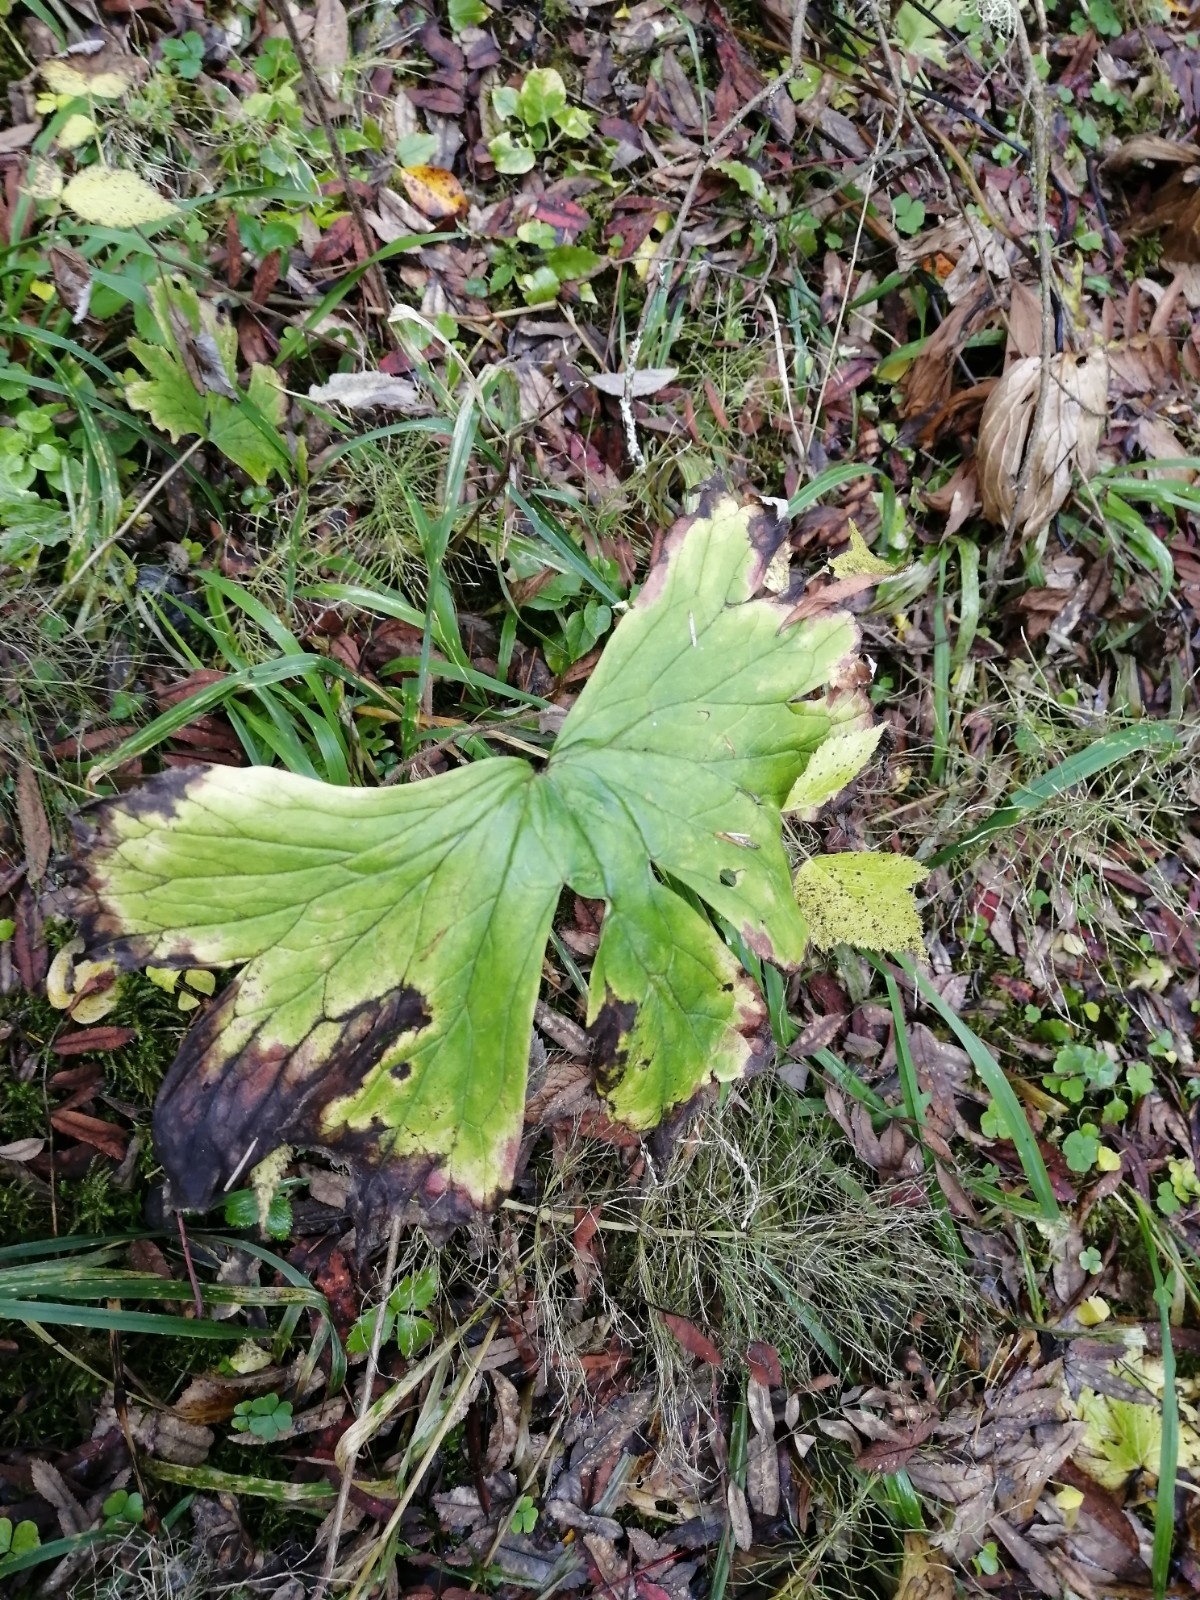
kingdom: Plantae
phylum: Tracheophyta
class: Magnoliopsida
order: Ranunculales
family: Ranunculaceae
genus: Aconitum
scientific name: Aconitum septentrionale
